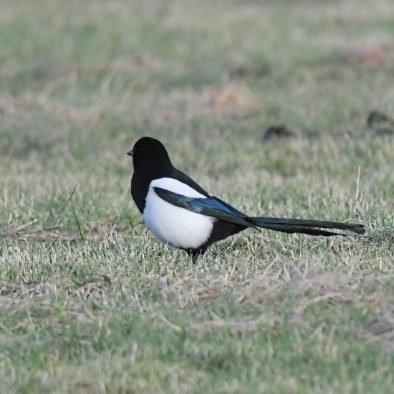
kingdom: Animalia
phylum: Chordata
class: Aves
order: Passeriformes
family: Corvidae
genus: Pica
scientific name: Pica pica
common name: Eurasian magpie
